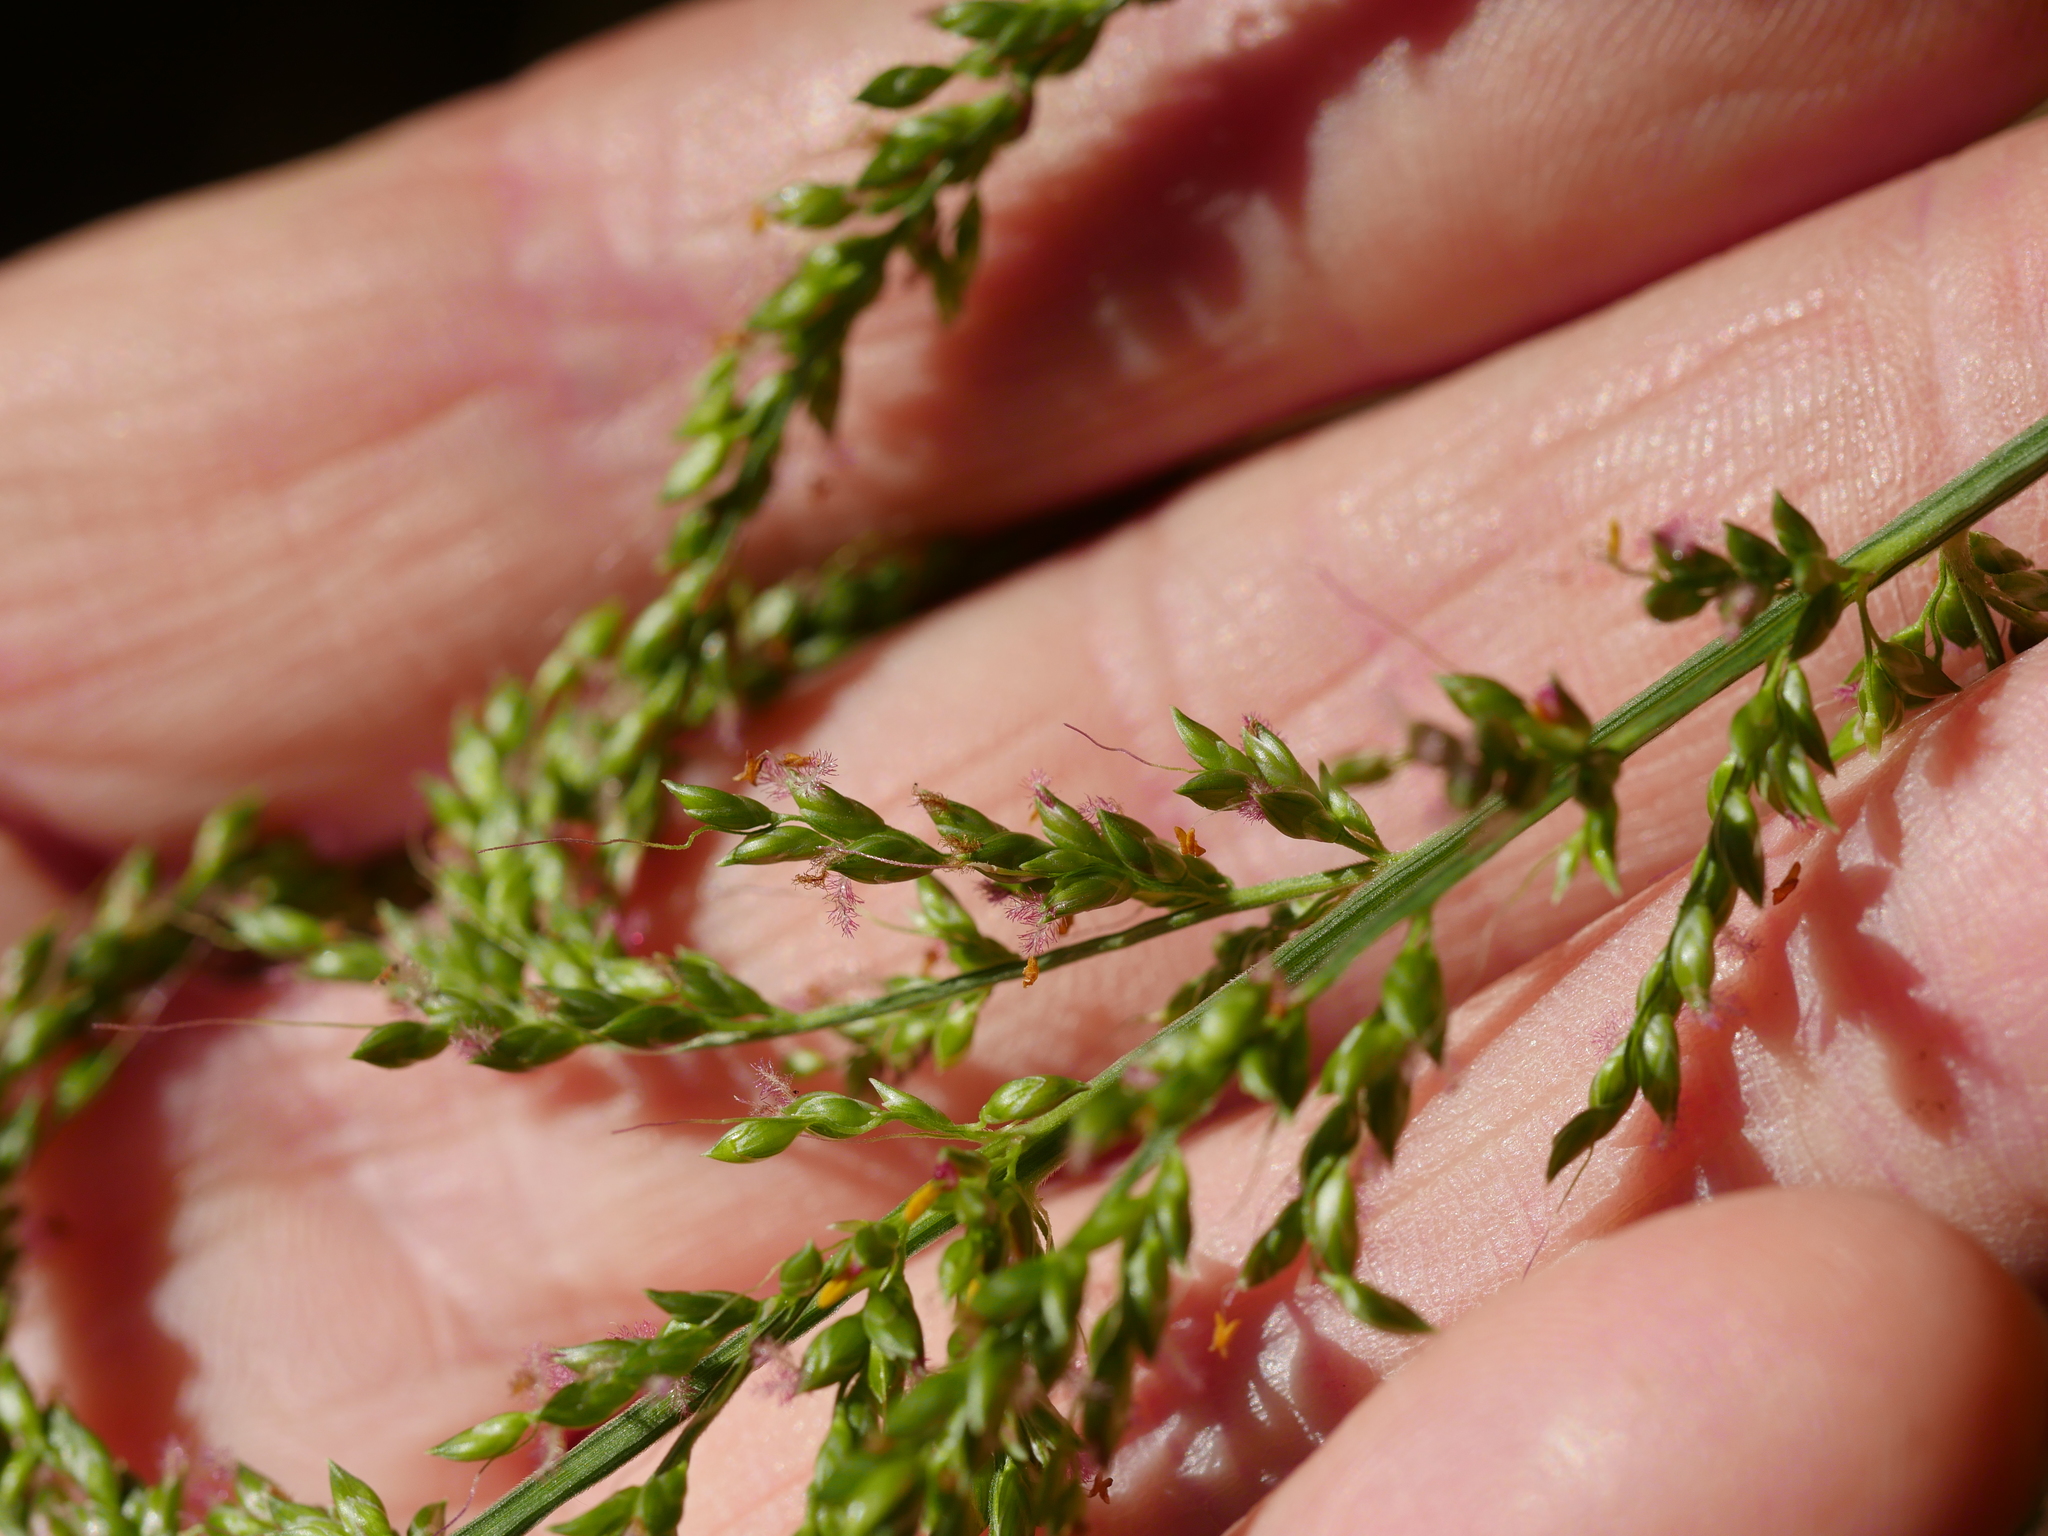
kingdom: Plantae
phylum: Tracheophyta
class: Liliopsida
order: Poales
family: Poaceae
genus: Setaria
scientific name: Setaria palmifolia
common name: Broadleaved bristlegrass
